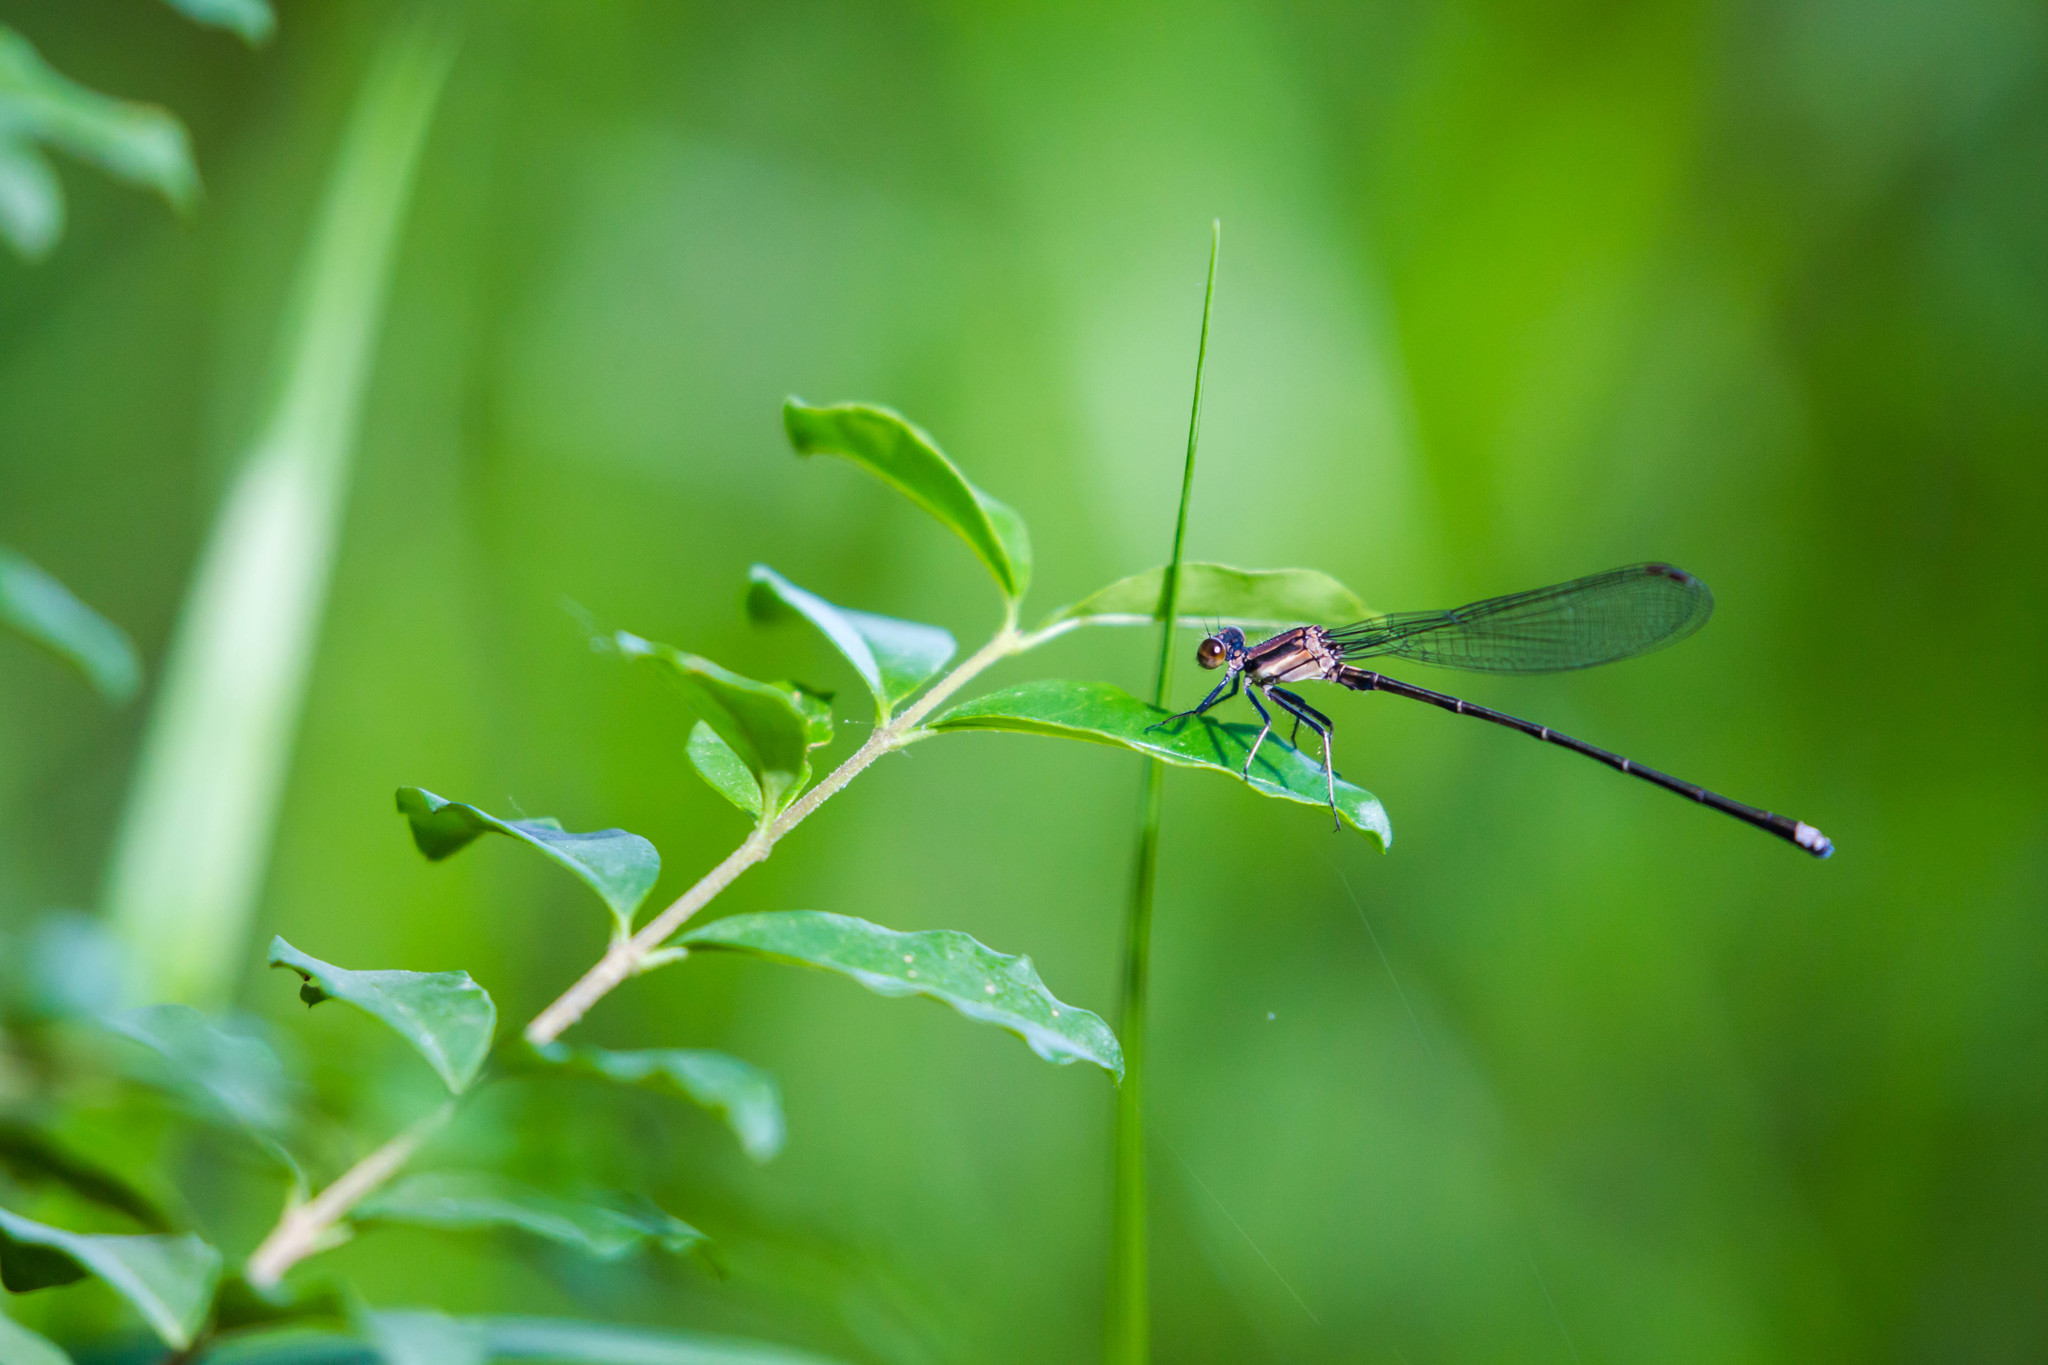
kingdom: Animalia
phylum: Arthropoda
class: Insecta
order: Odonata
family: Coenagrionidae
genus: Argia
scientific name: Argia tibialis
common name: Blue-tipped dancer
